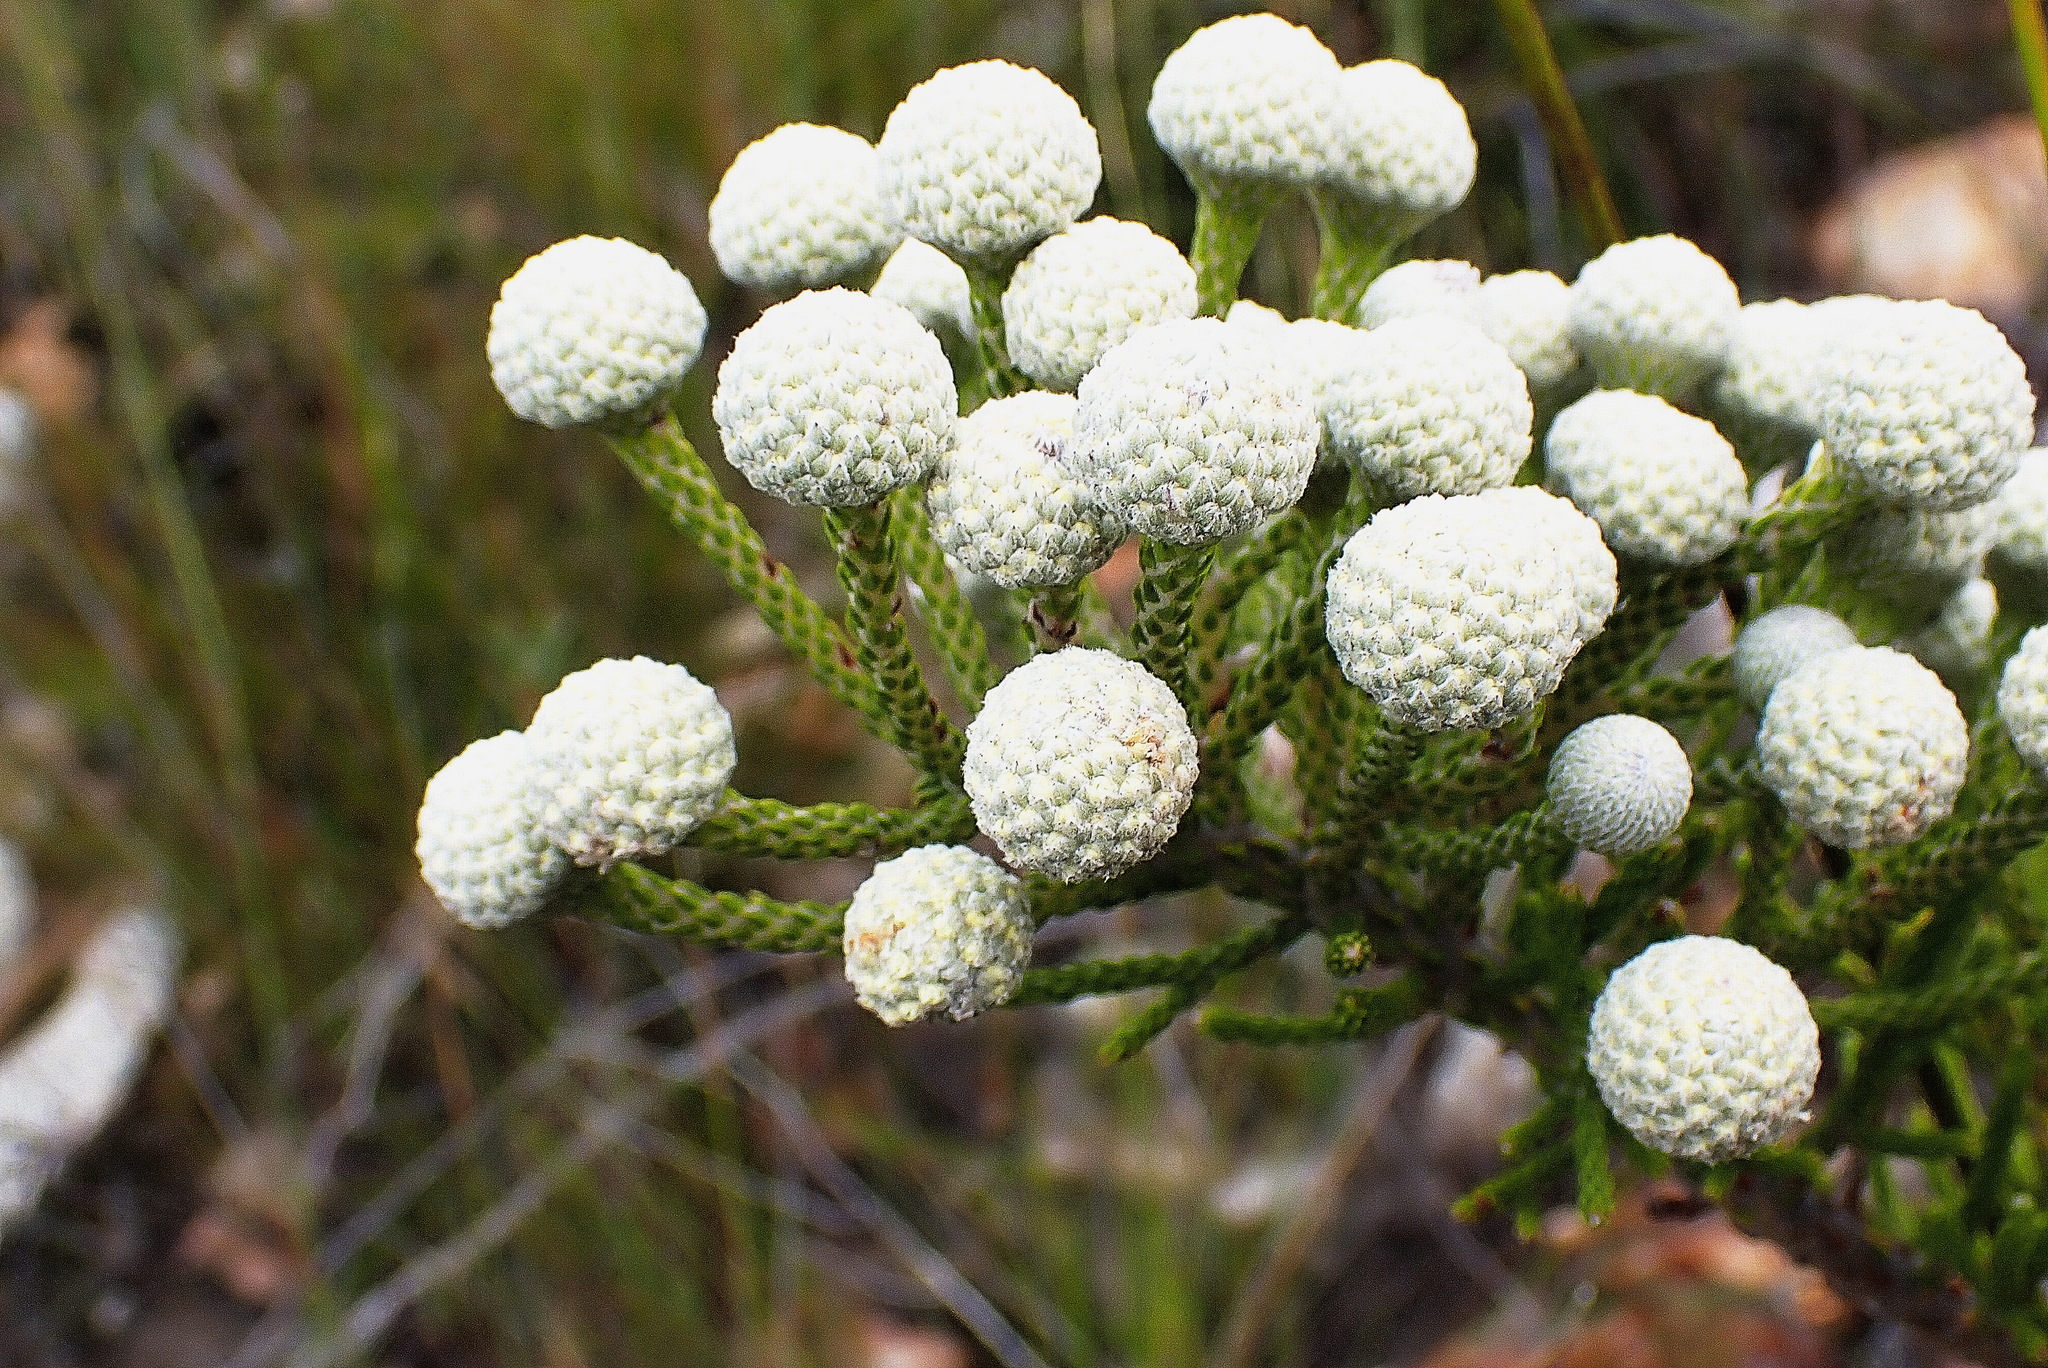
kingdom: Plantae
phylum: Tracheophyta
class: Magnoliopsida
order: Bruniales
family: Bruniaceae
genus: Brunia
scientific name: Brunia noduliflora
